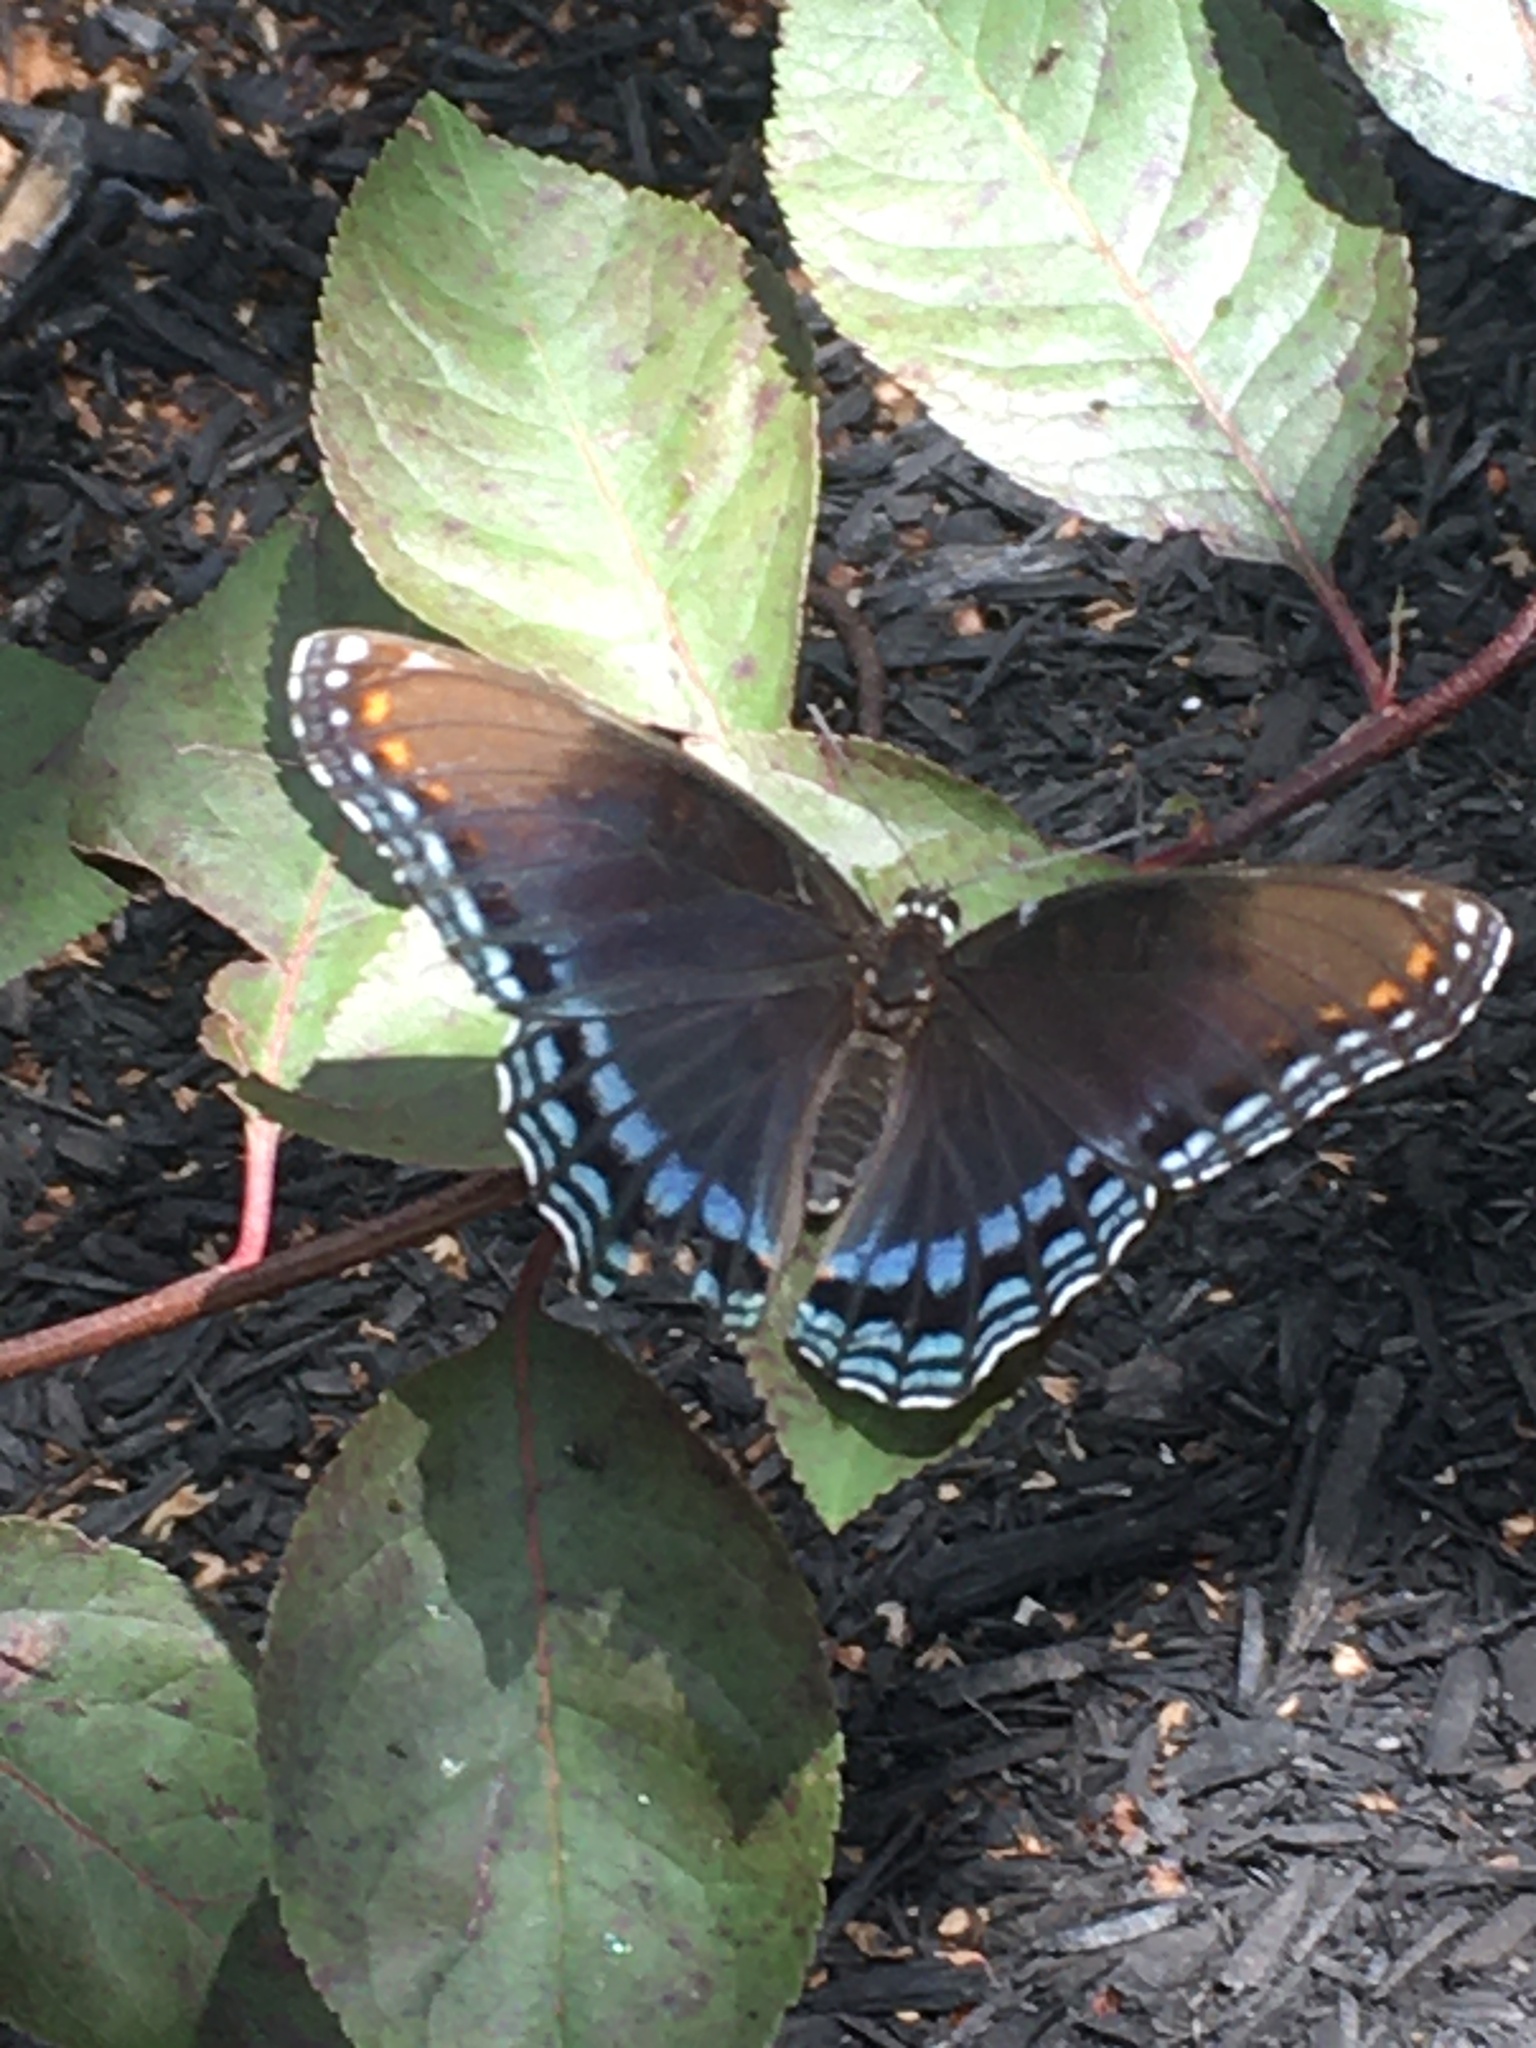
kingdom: Animalia
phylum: Arthropoda
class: Insecta
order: Lepidoptera
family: Nymphalidae
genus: Limenitis
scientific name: Limenitis astyanax
